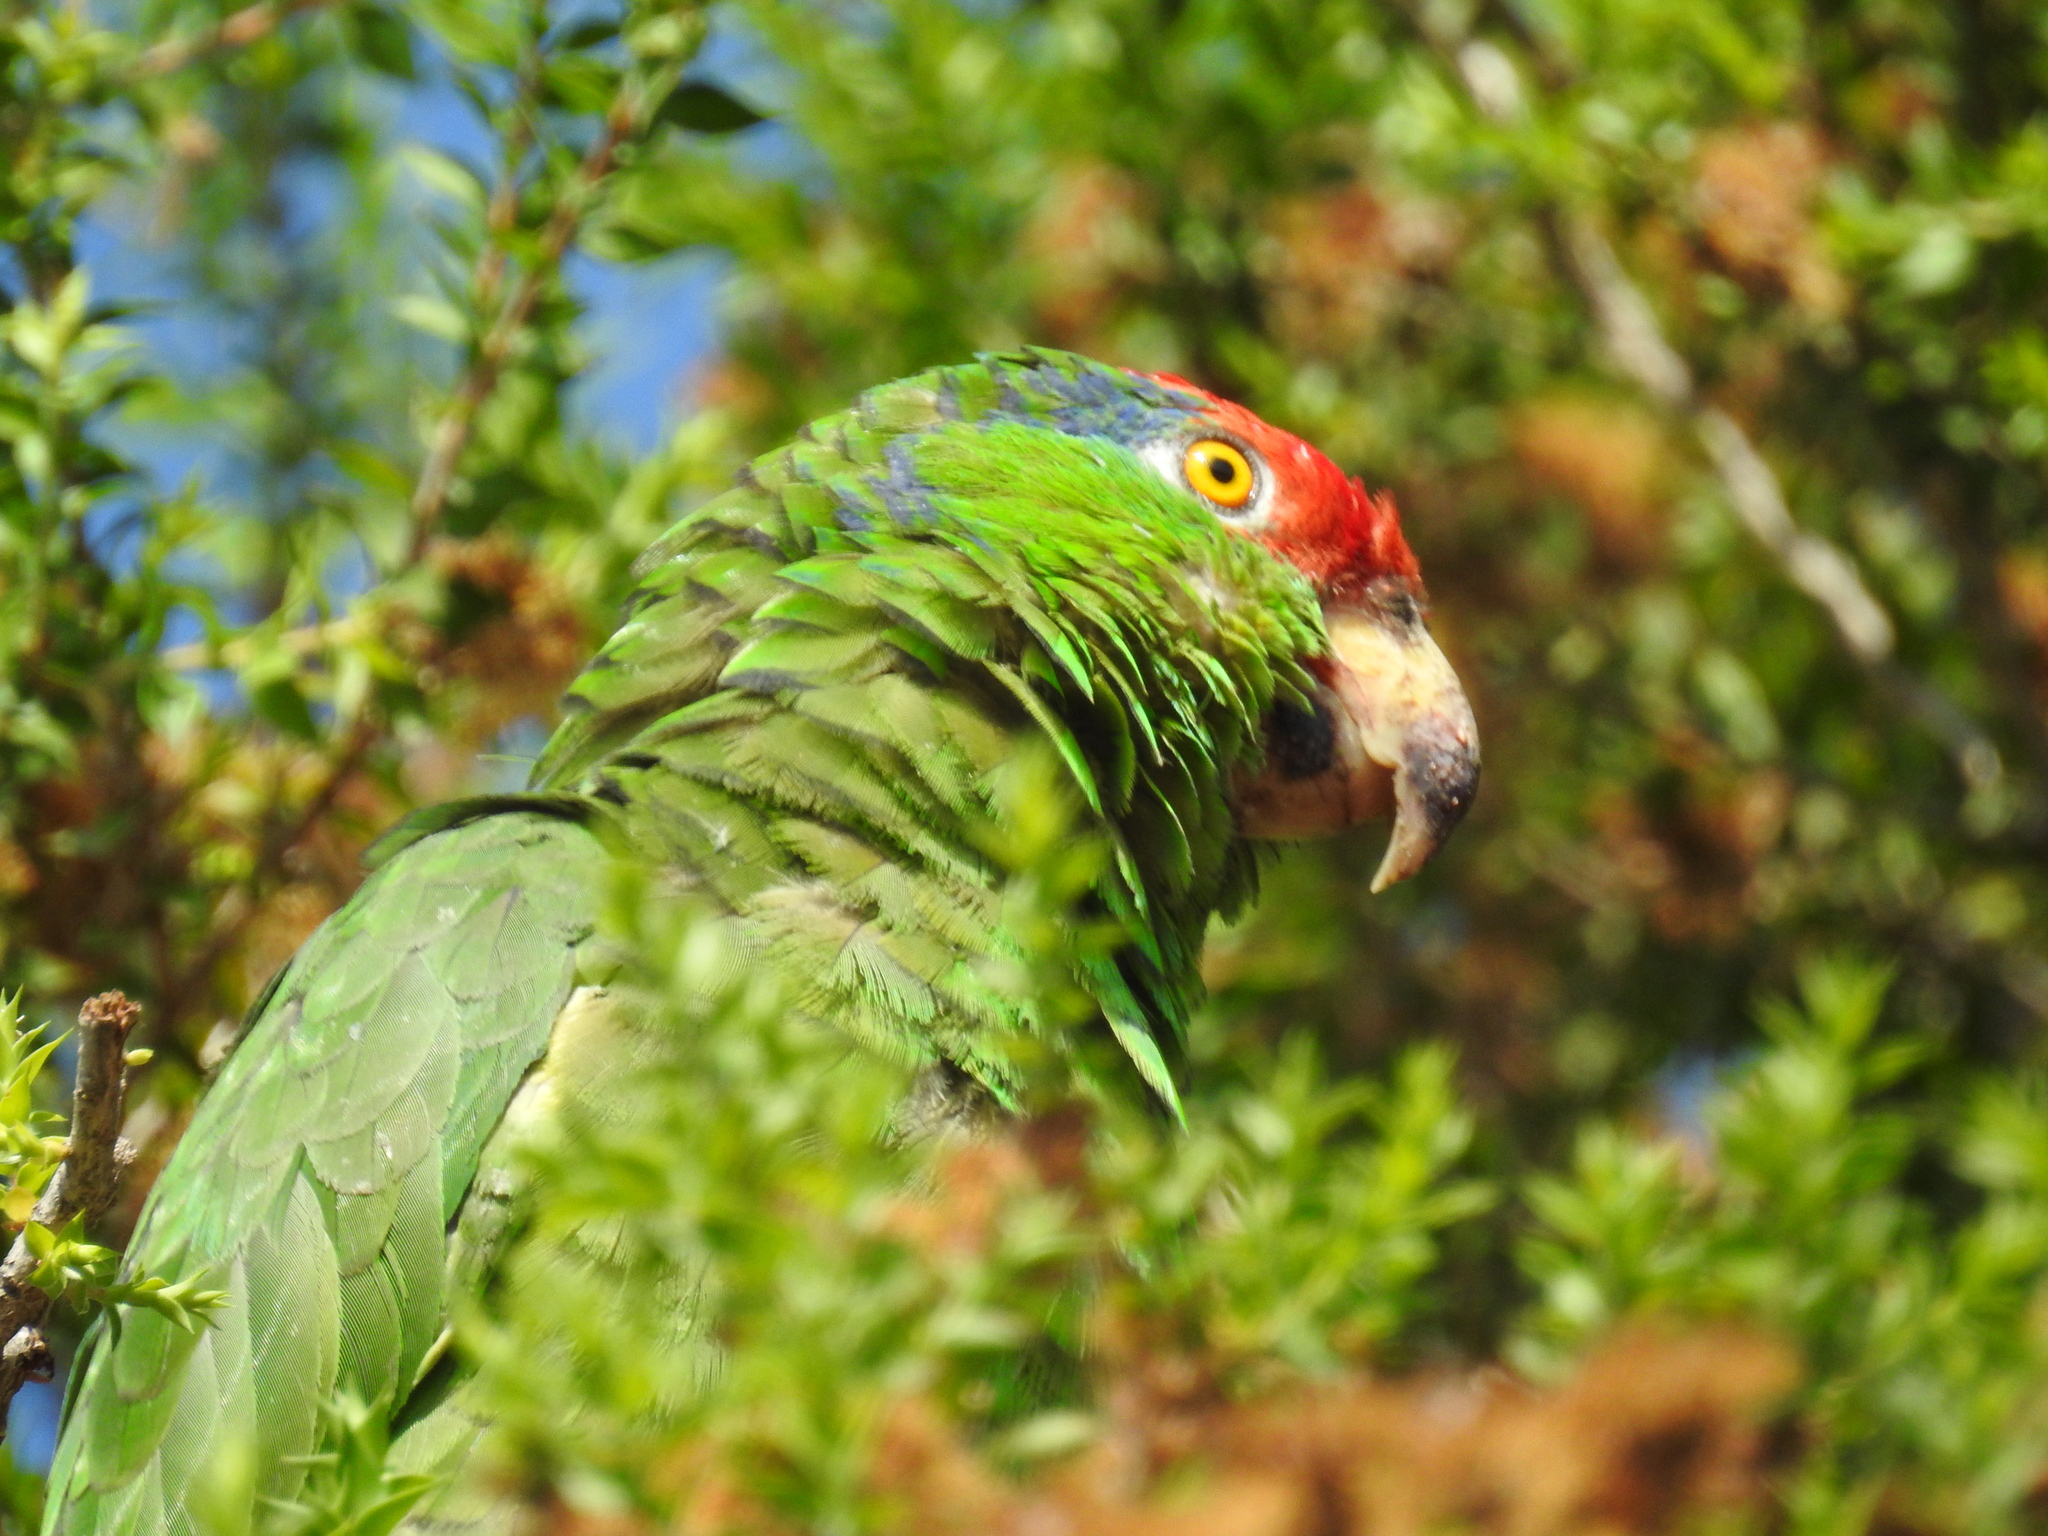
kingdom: Animalia
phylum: Chordata
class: Aves
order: Psittaciformes
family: Psittacidae
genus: Amazona
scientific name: Amazona viridigenalis
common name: Red-crowned amazon
